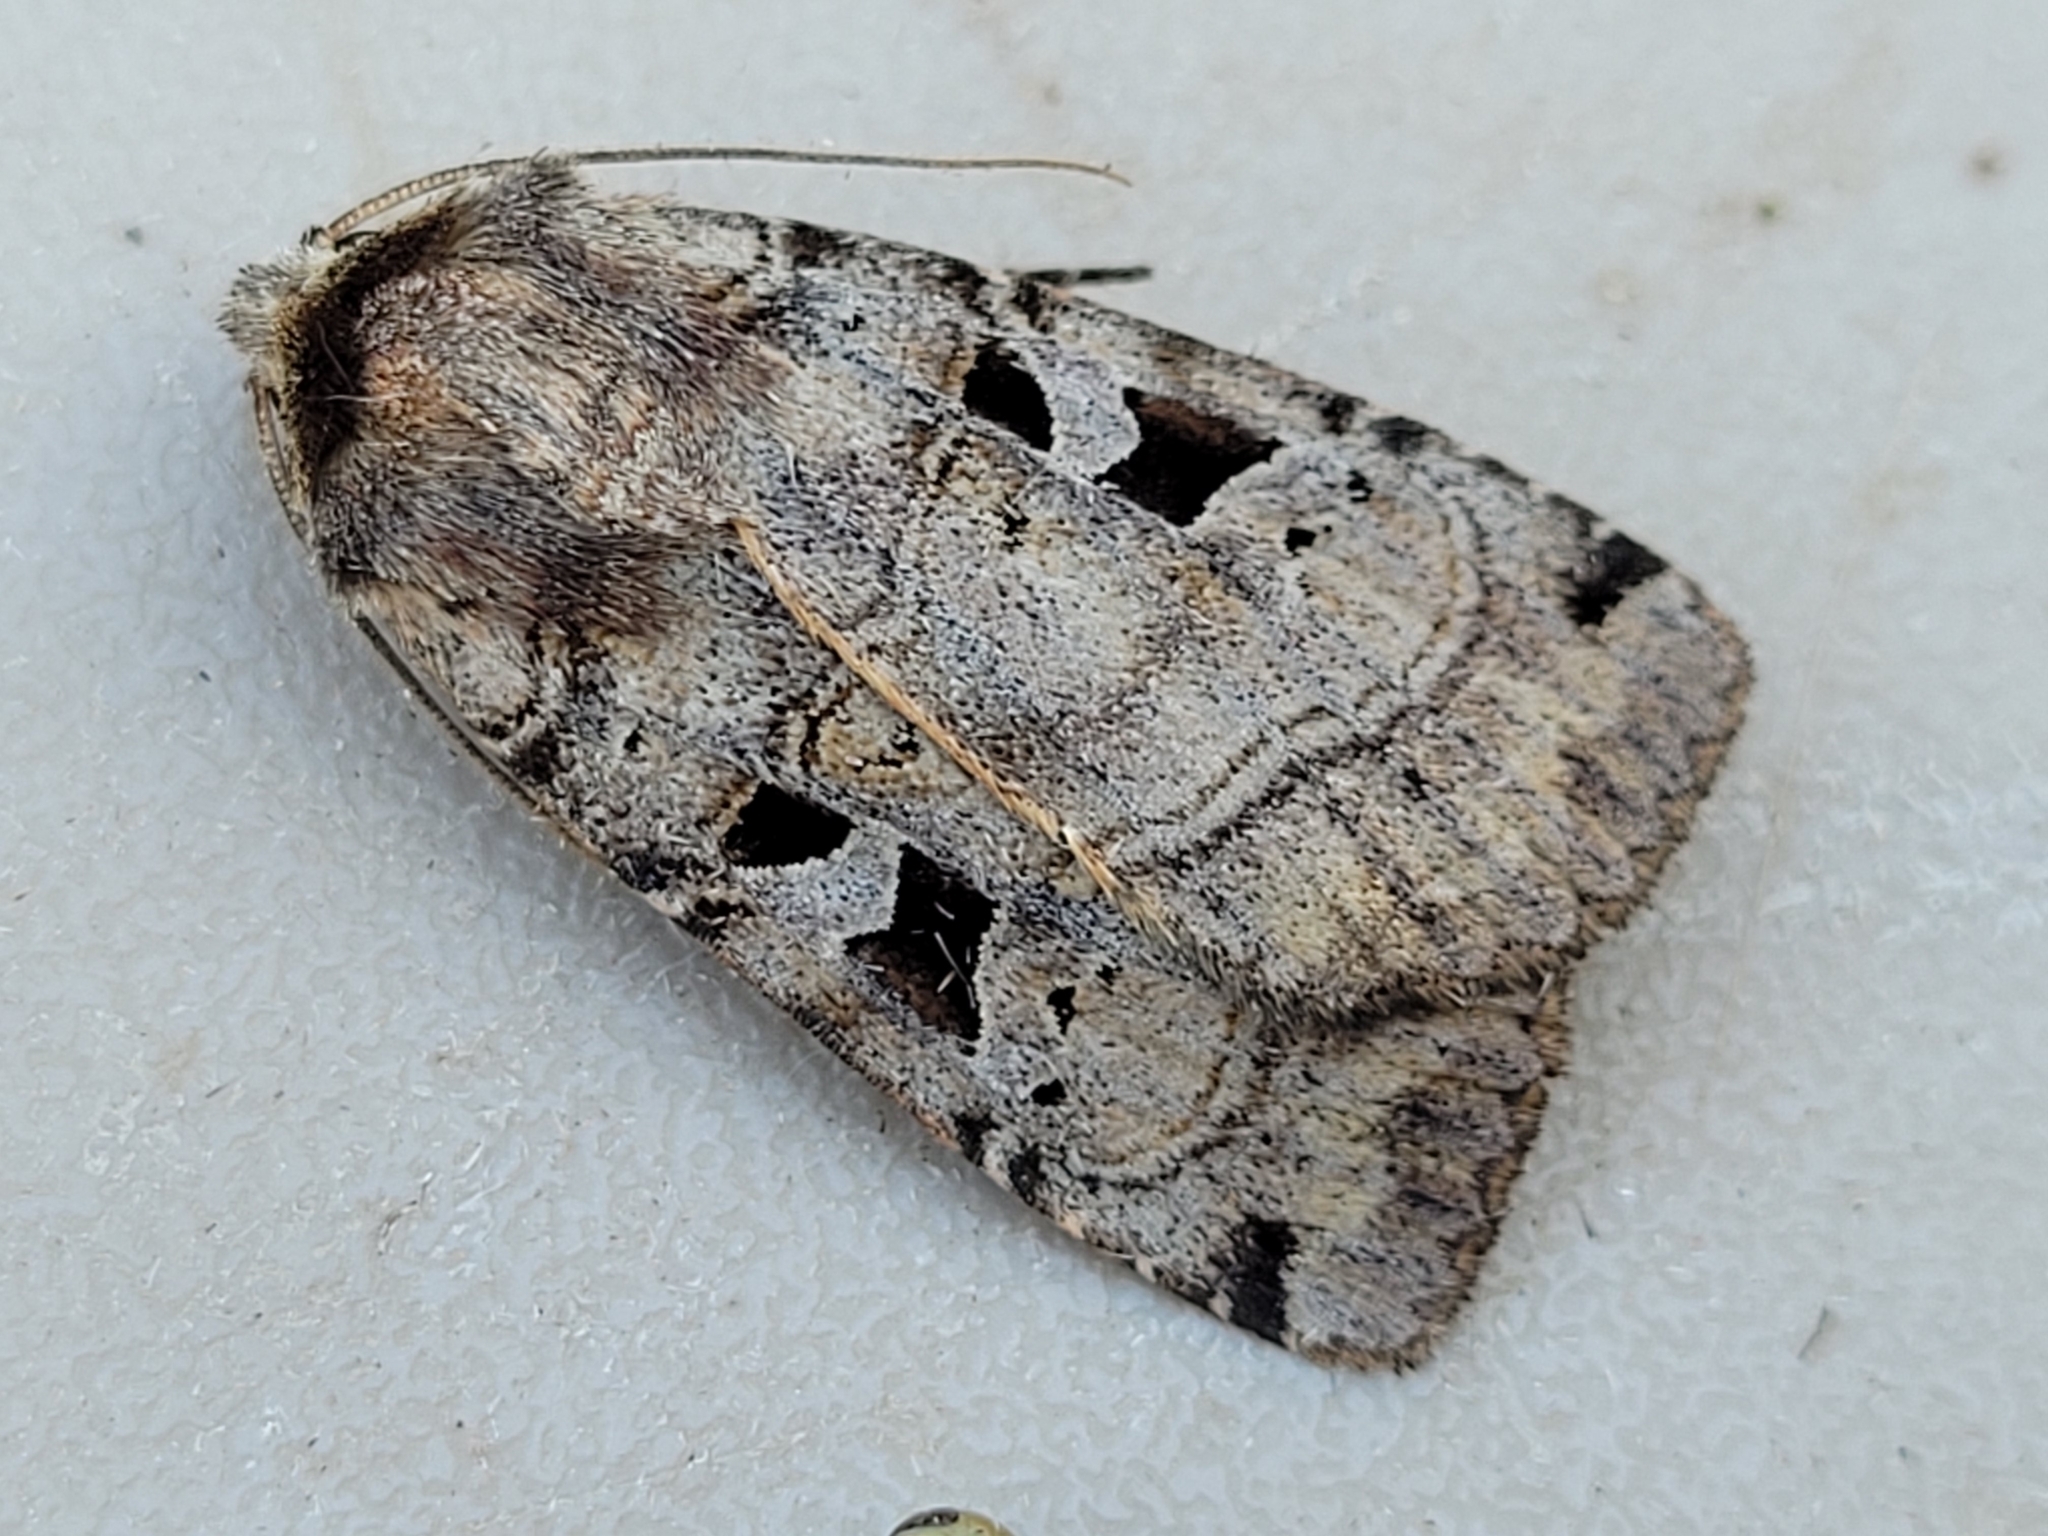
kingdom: Animalia
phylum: Arthropoda
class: Insecta
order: Lepidoptera
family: Noctuidae
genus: Xestia
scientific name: Xestia normaniana
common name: Norman's dart moth
